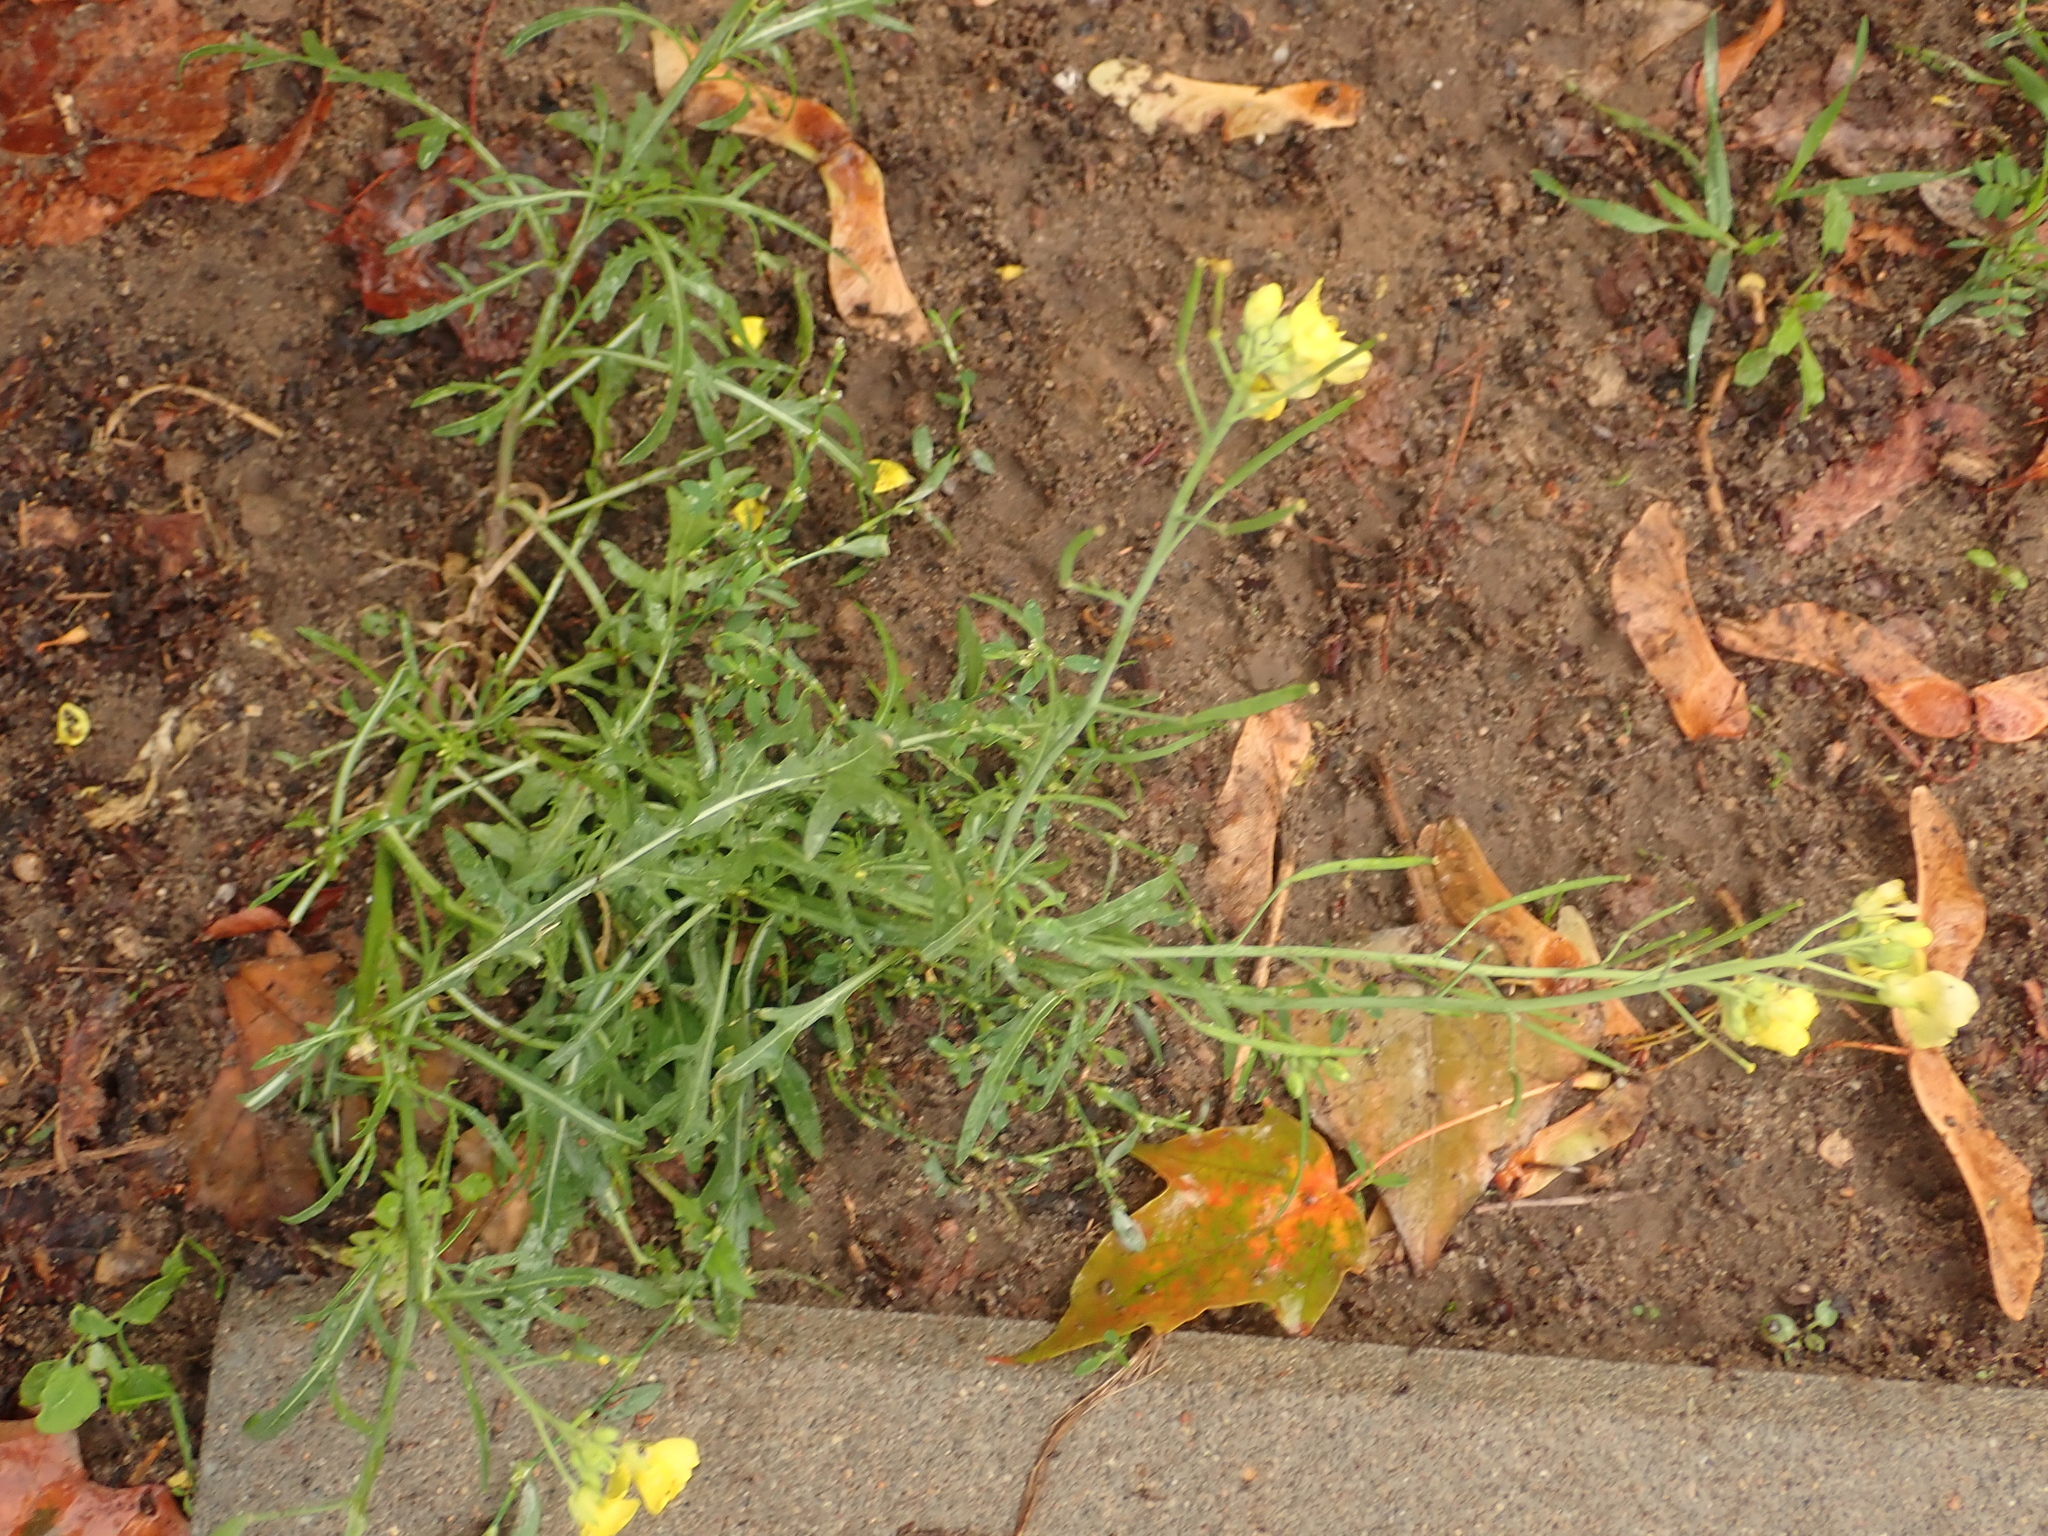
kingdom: Plantae
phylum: Tracheophyta
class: Magnoliopsida
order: Brassicales
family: Brassicaceae
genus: Diplotaxis
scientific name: Diplotaxis tenuifolia
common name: Perennial wall-rocket
